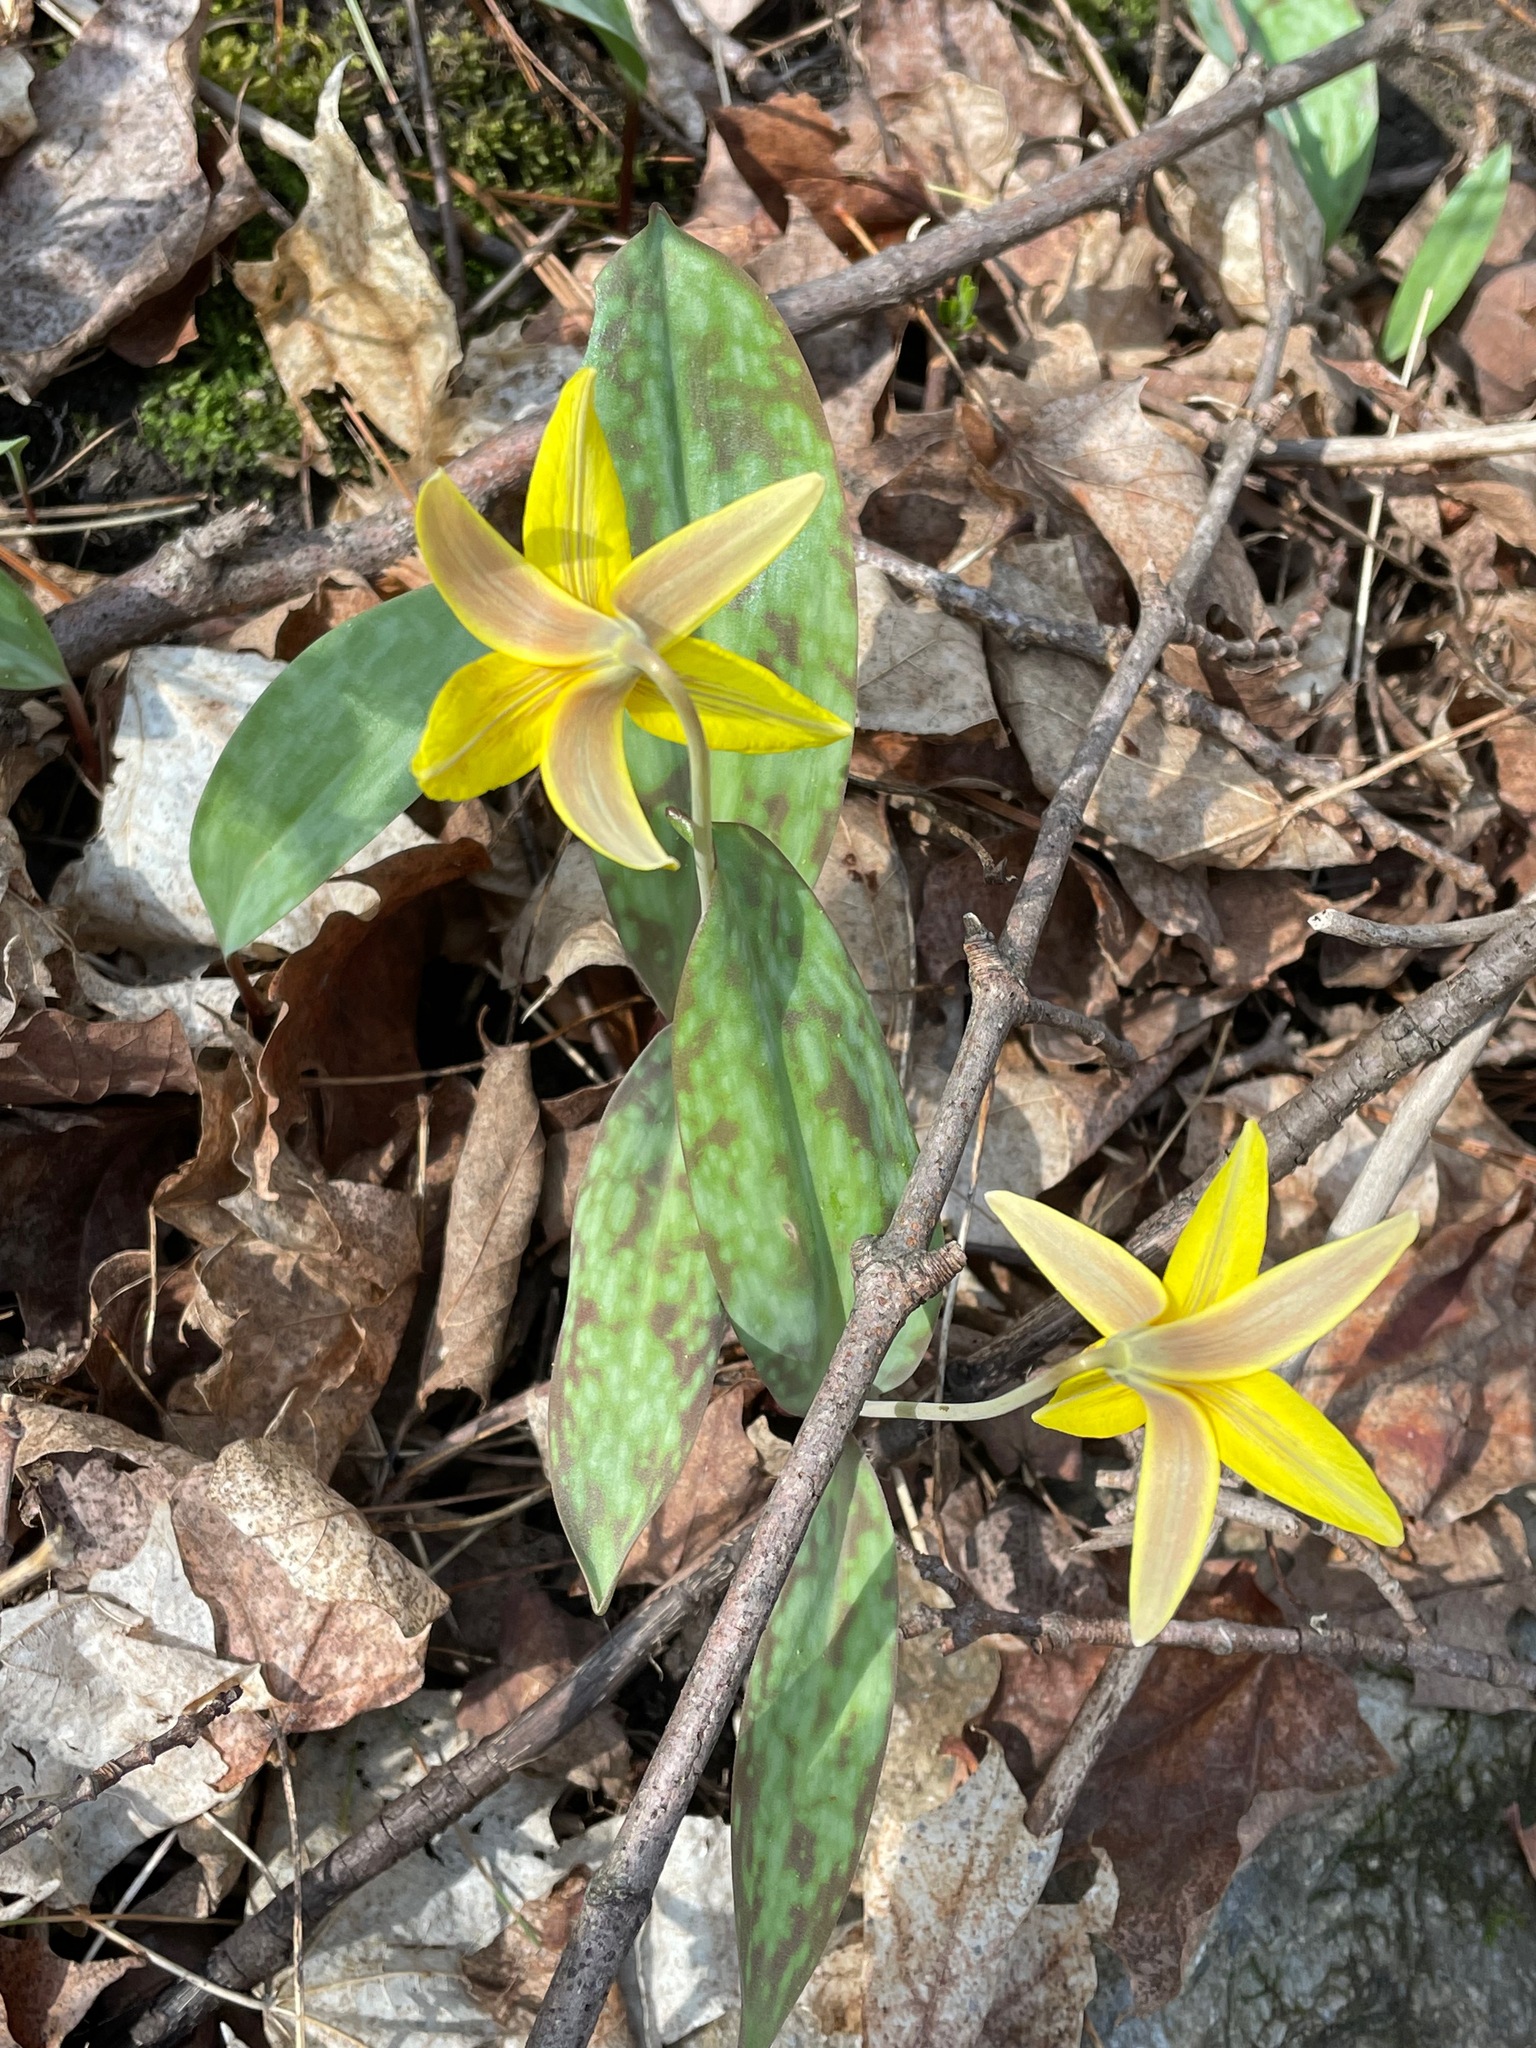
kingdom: Plantae
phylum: Tracheophyta
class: Liliopsida
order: Liliales
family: Liliaceae
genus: Erythronium
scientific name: Erythronium americanum
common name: Yellow adder's-tongue
